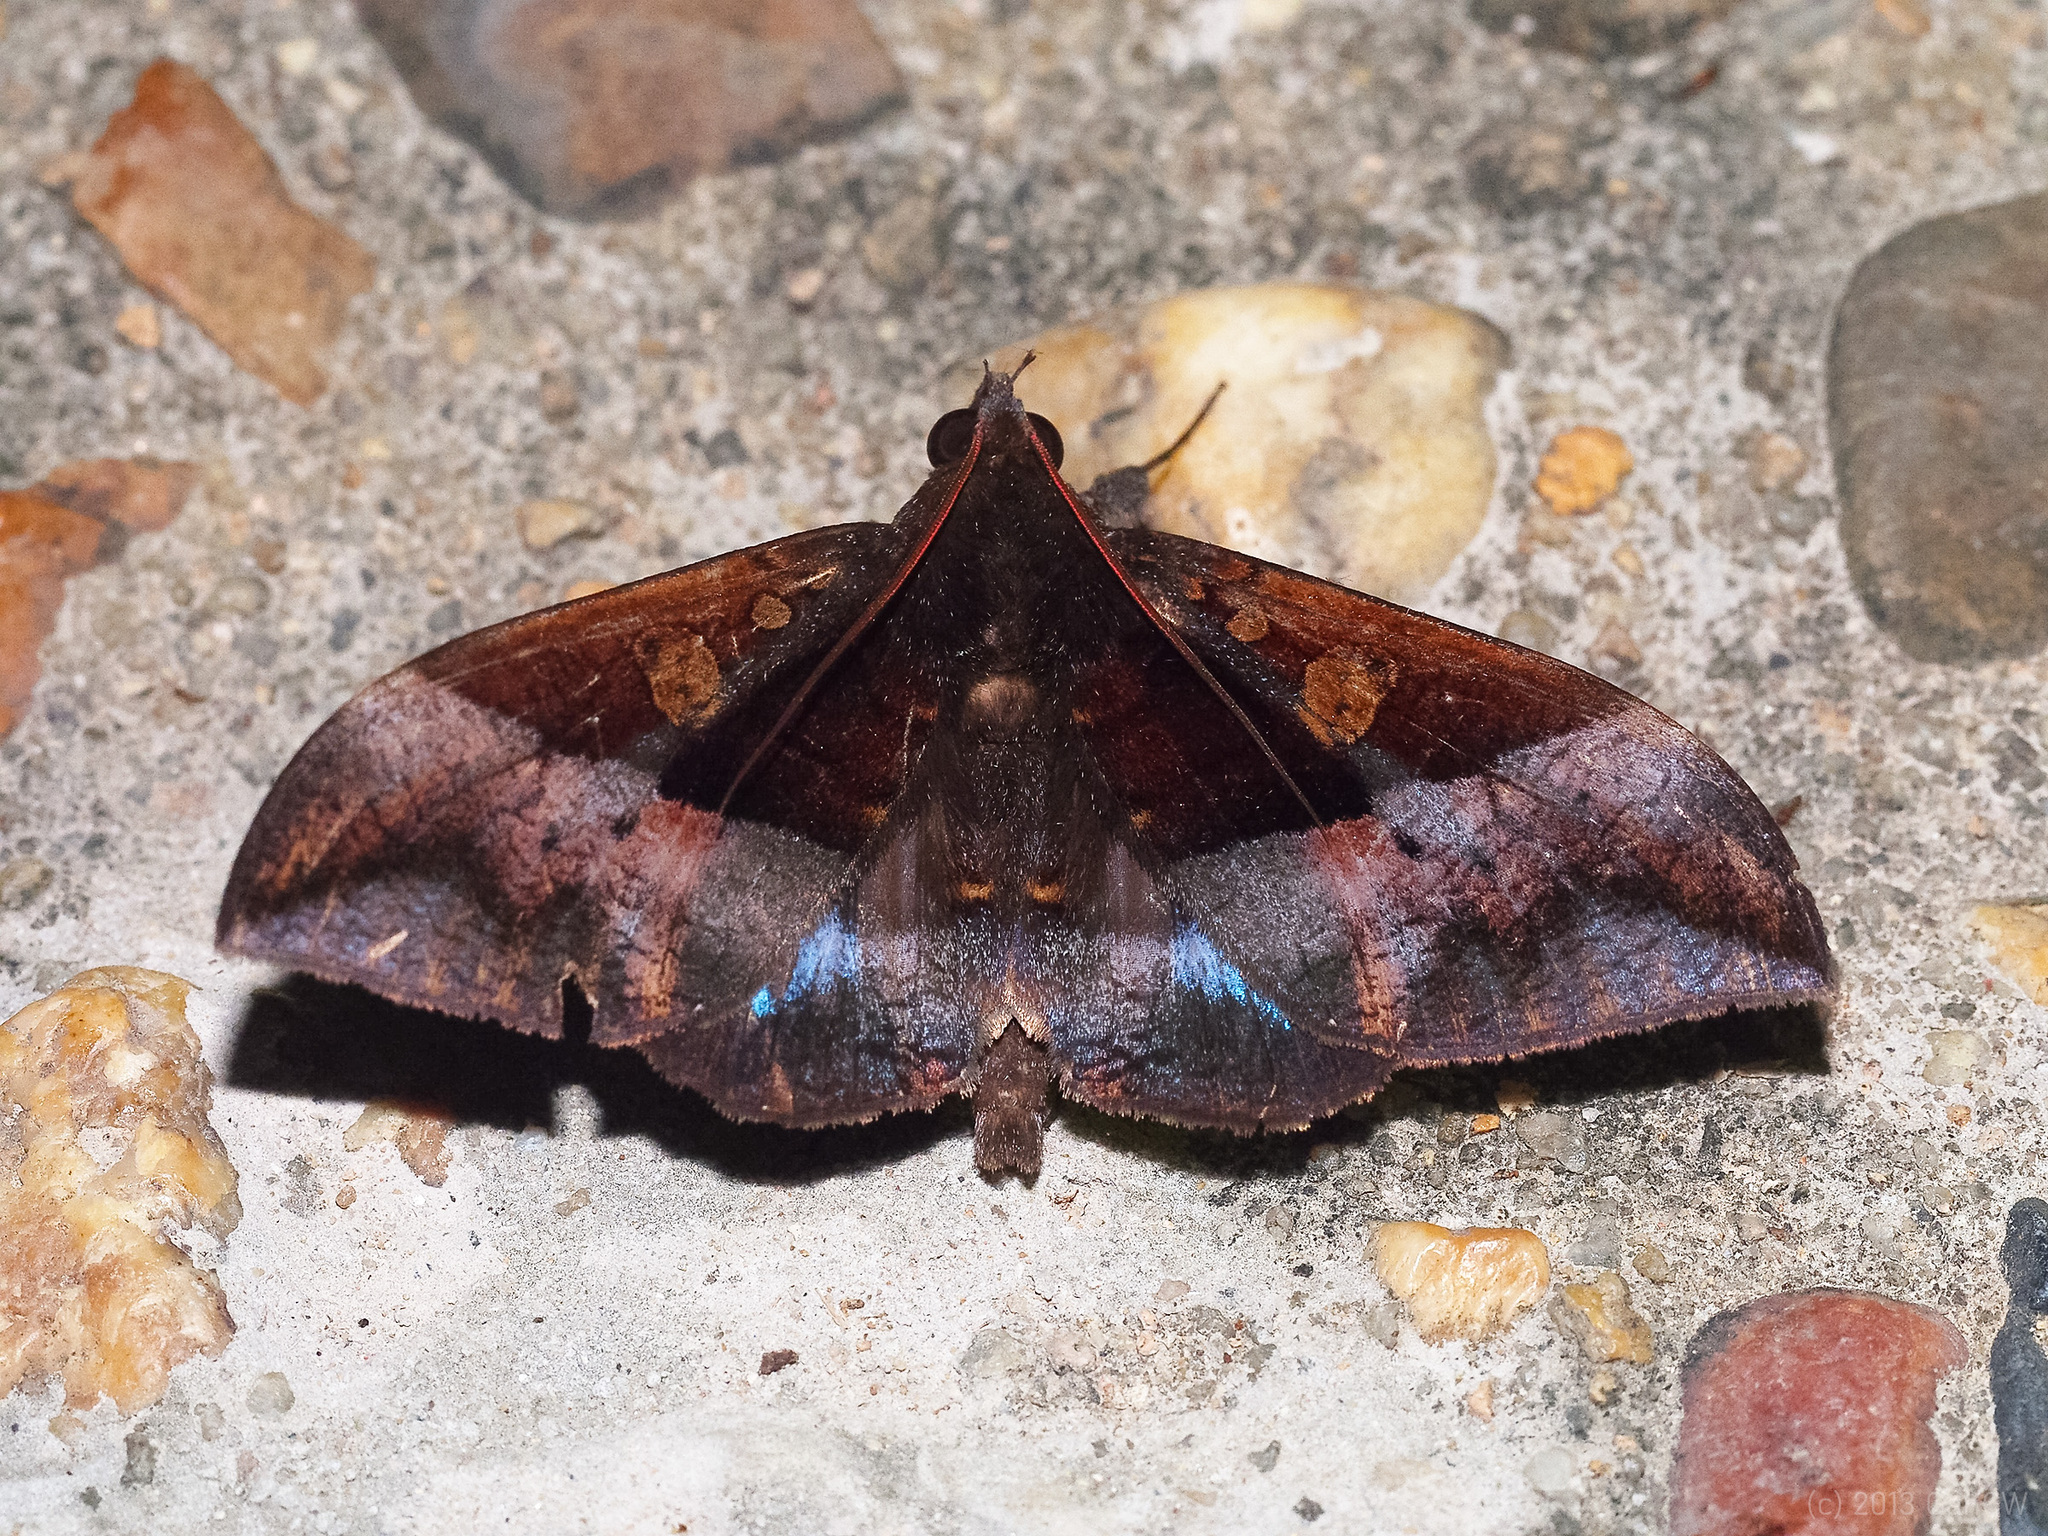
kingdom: Animalia
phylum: Arthropoda
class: Insecta
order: Lepidoptera
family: Erebidae
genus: Ischyja
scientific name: Ischyja hemiphaea
